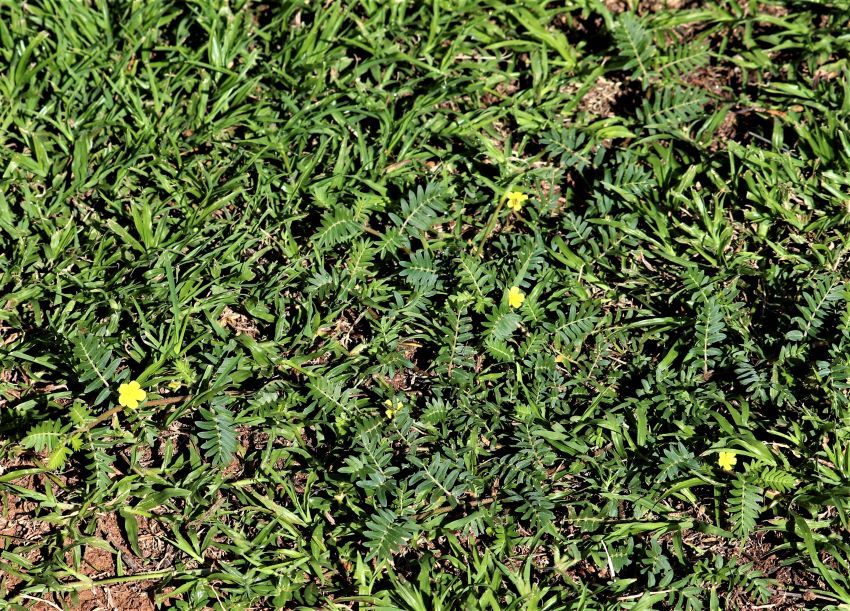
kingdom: Plantae
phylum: Tracheophyta
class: Magnoliopsida
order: Zygophyllales
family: Zygophyllaceae
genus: Tribulus
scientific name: Tribulus terrestris
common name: Puncturevine
